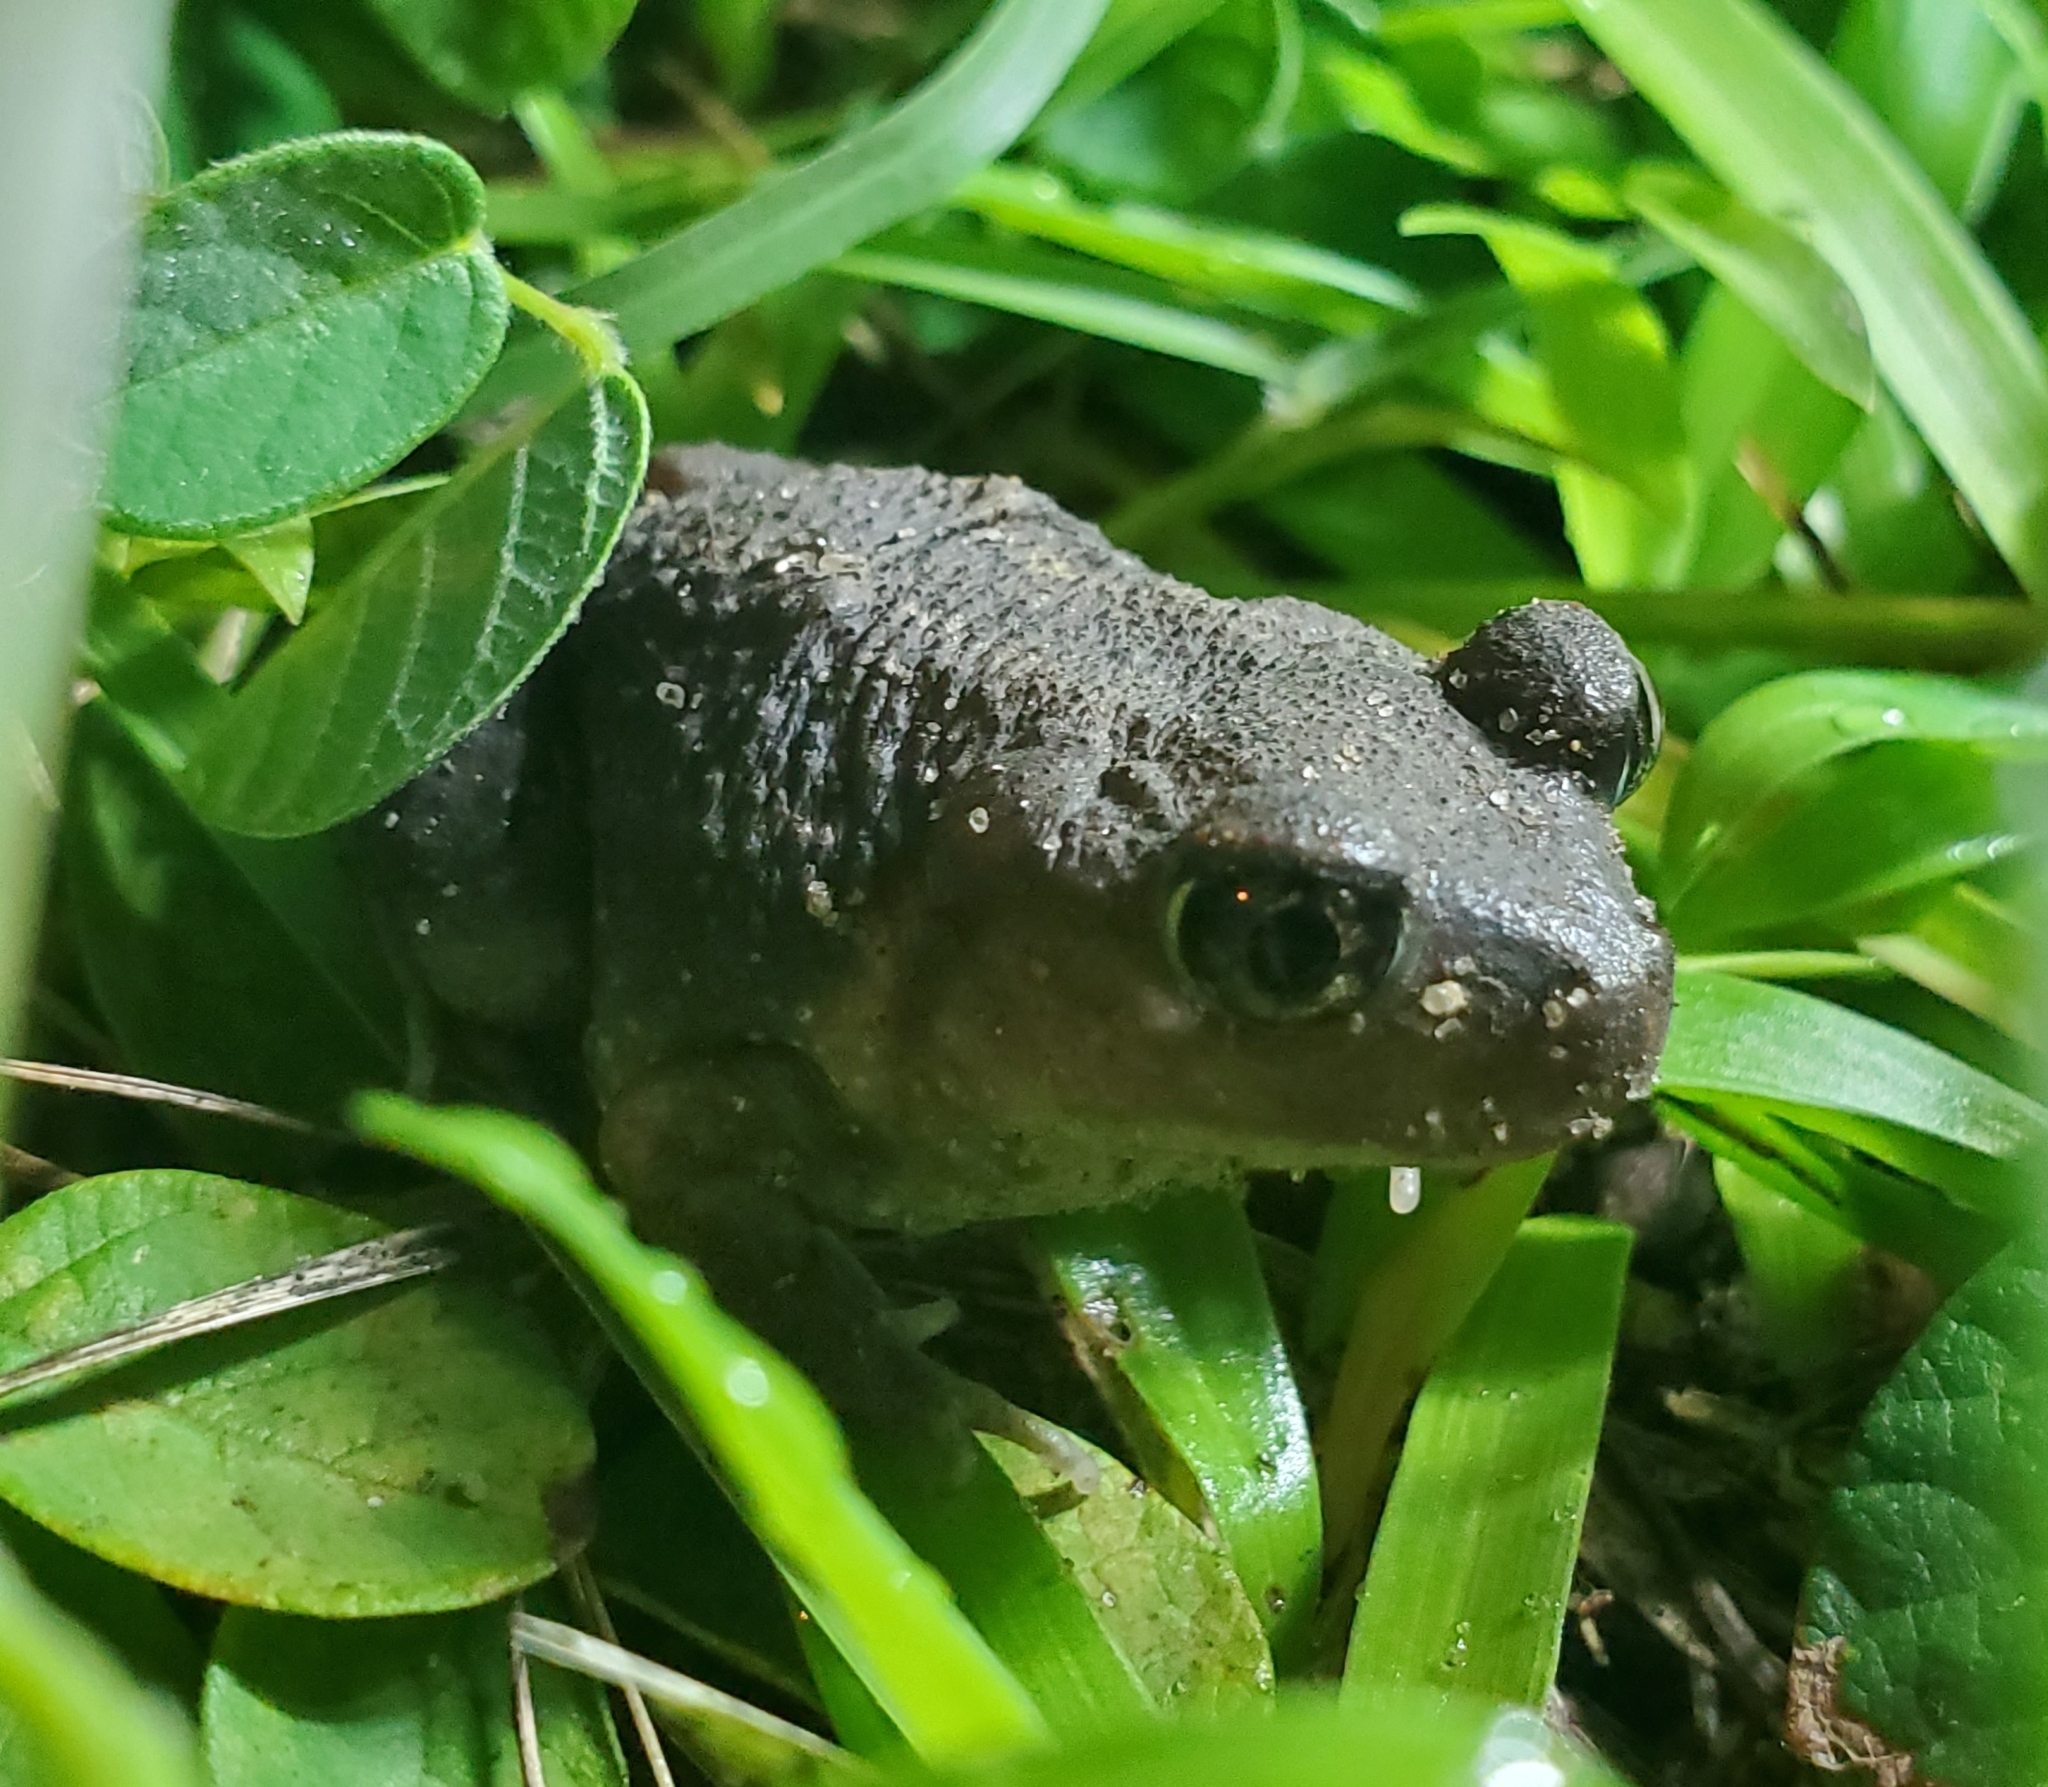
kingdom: Animalia
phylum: Chordata
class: Amphibia
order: Anura
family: Scaphiopodidae
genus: Scaphiopus
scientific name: Scaphiopus holbrookii
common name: Eastern spadefoot toad
